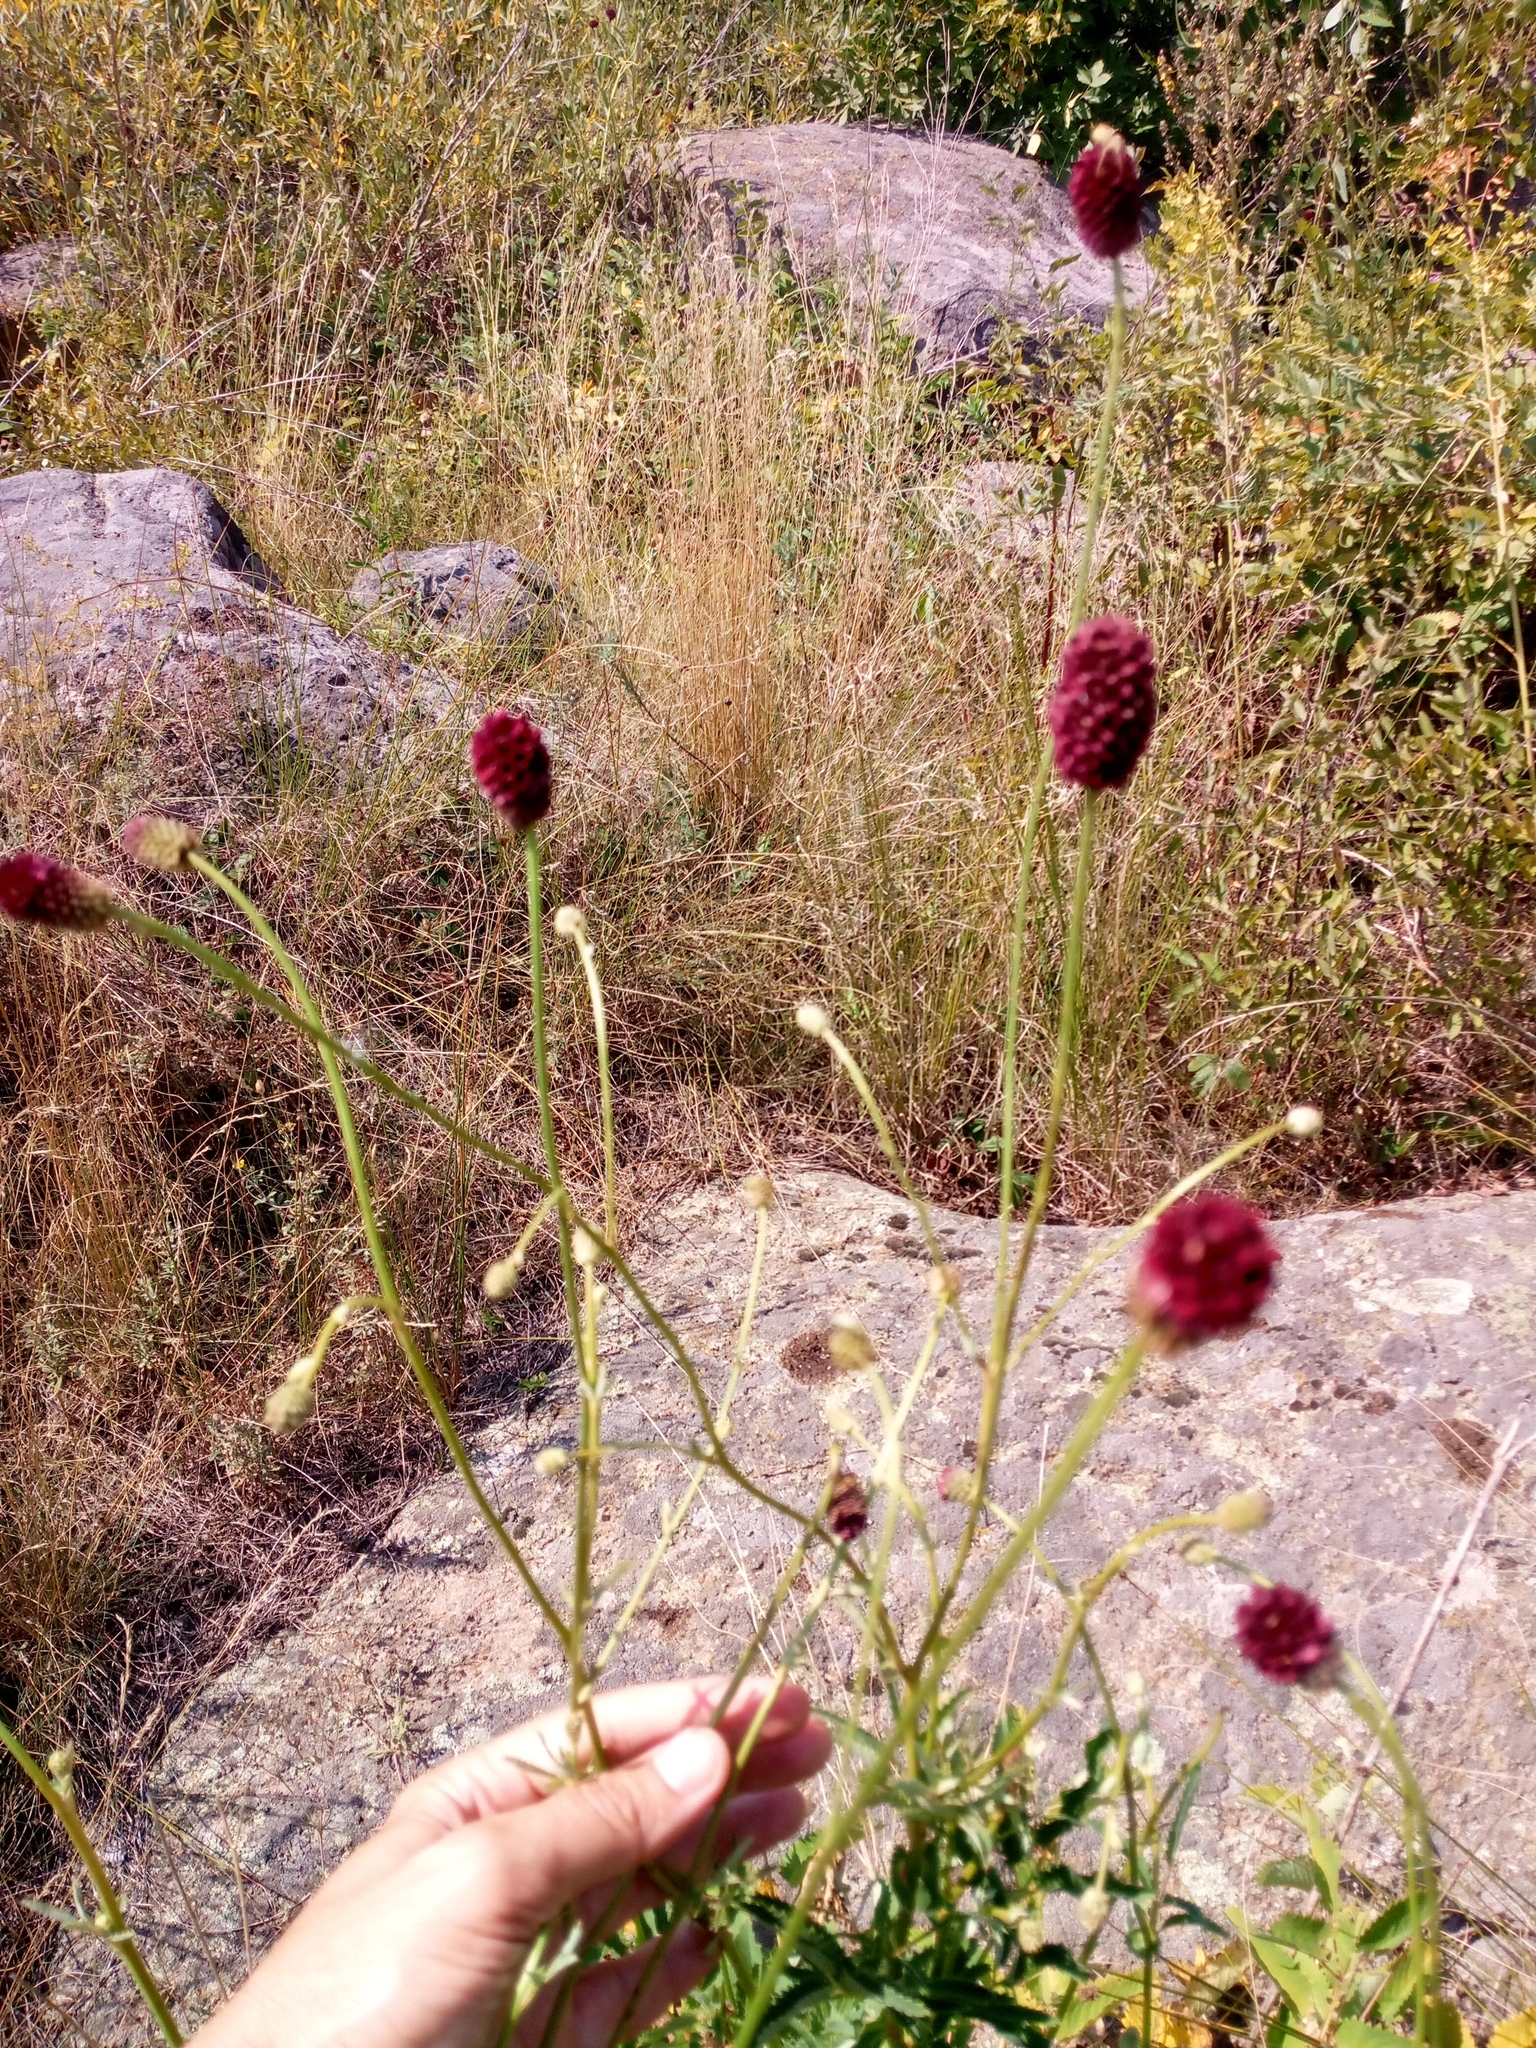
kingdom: Plantae
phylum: Tracheophyta
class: Magnoliopsida
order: Rosales
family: Rosaceae
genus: Sanguisorba
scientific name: Sanguisorba officinalis
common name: Great burnet
